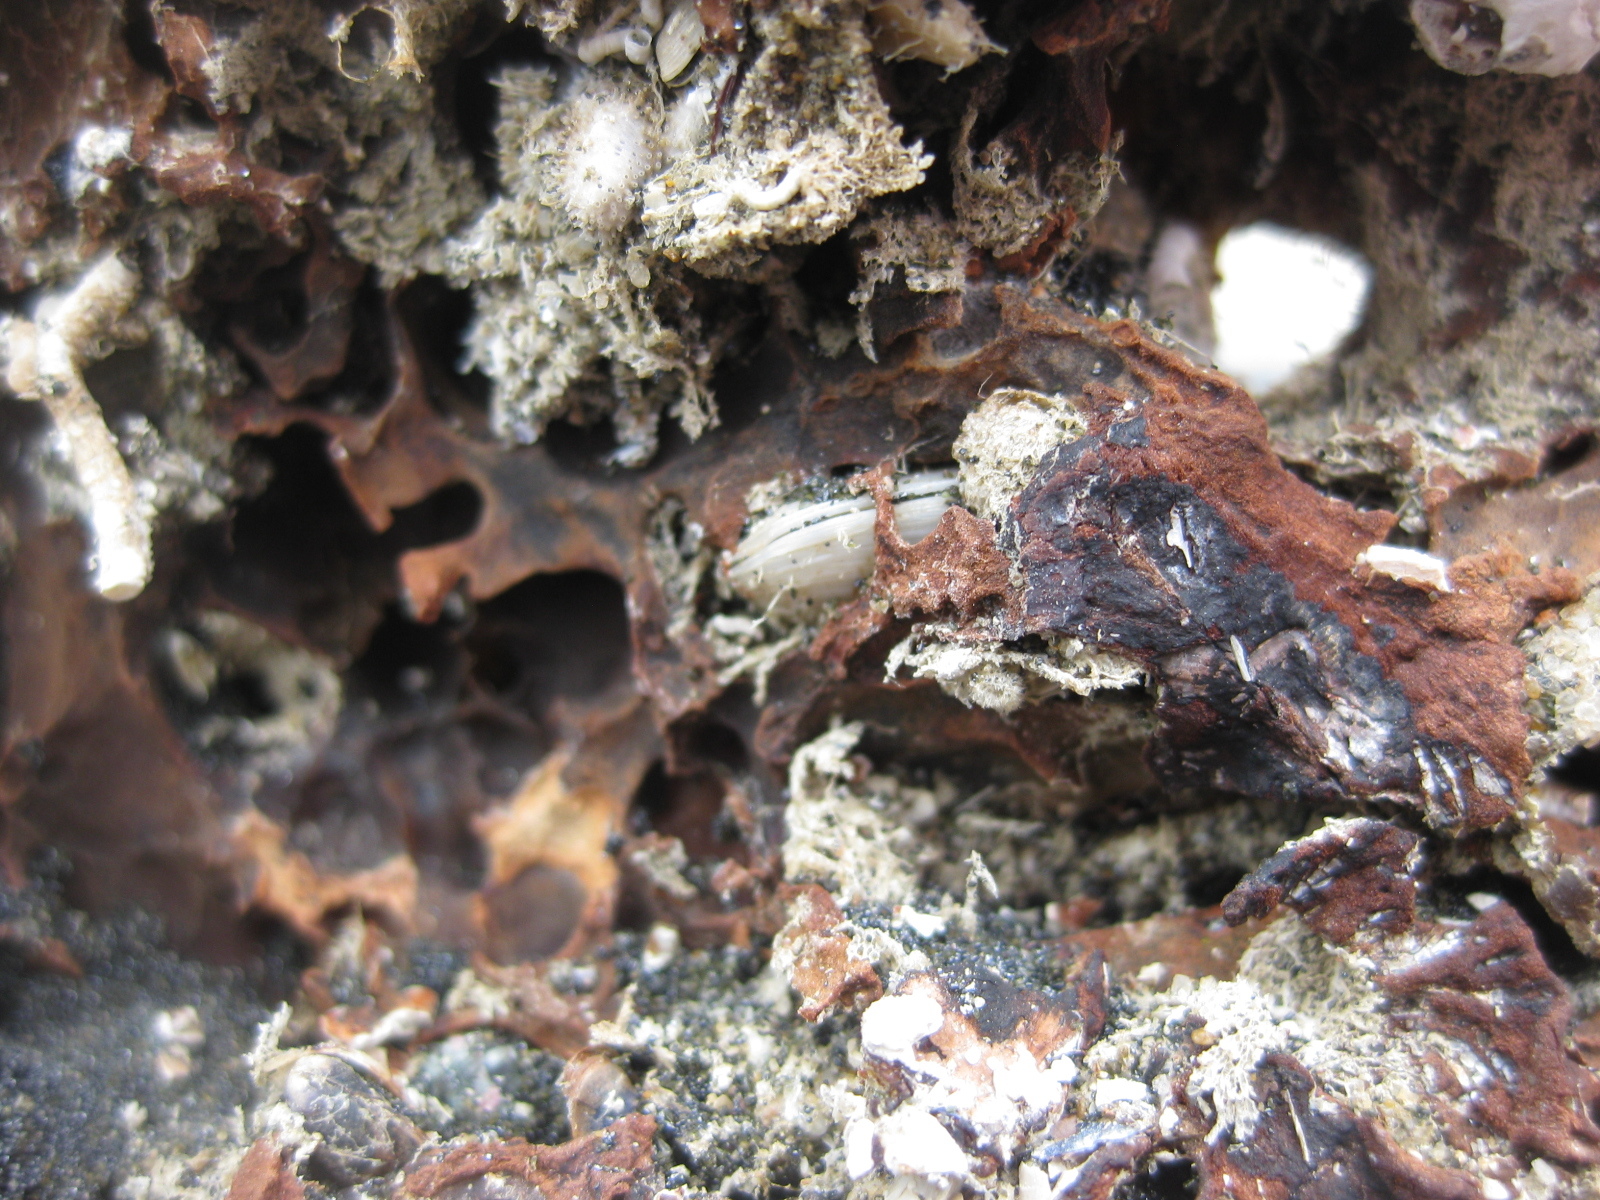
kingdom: Animalia
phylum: Mollusca
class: Bivalvia
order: Adapedonta
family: Hiatellidae
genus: Hiatella
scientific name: Hiatella arctica
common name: Arctic hiatella
